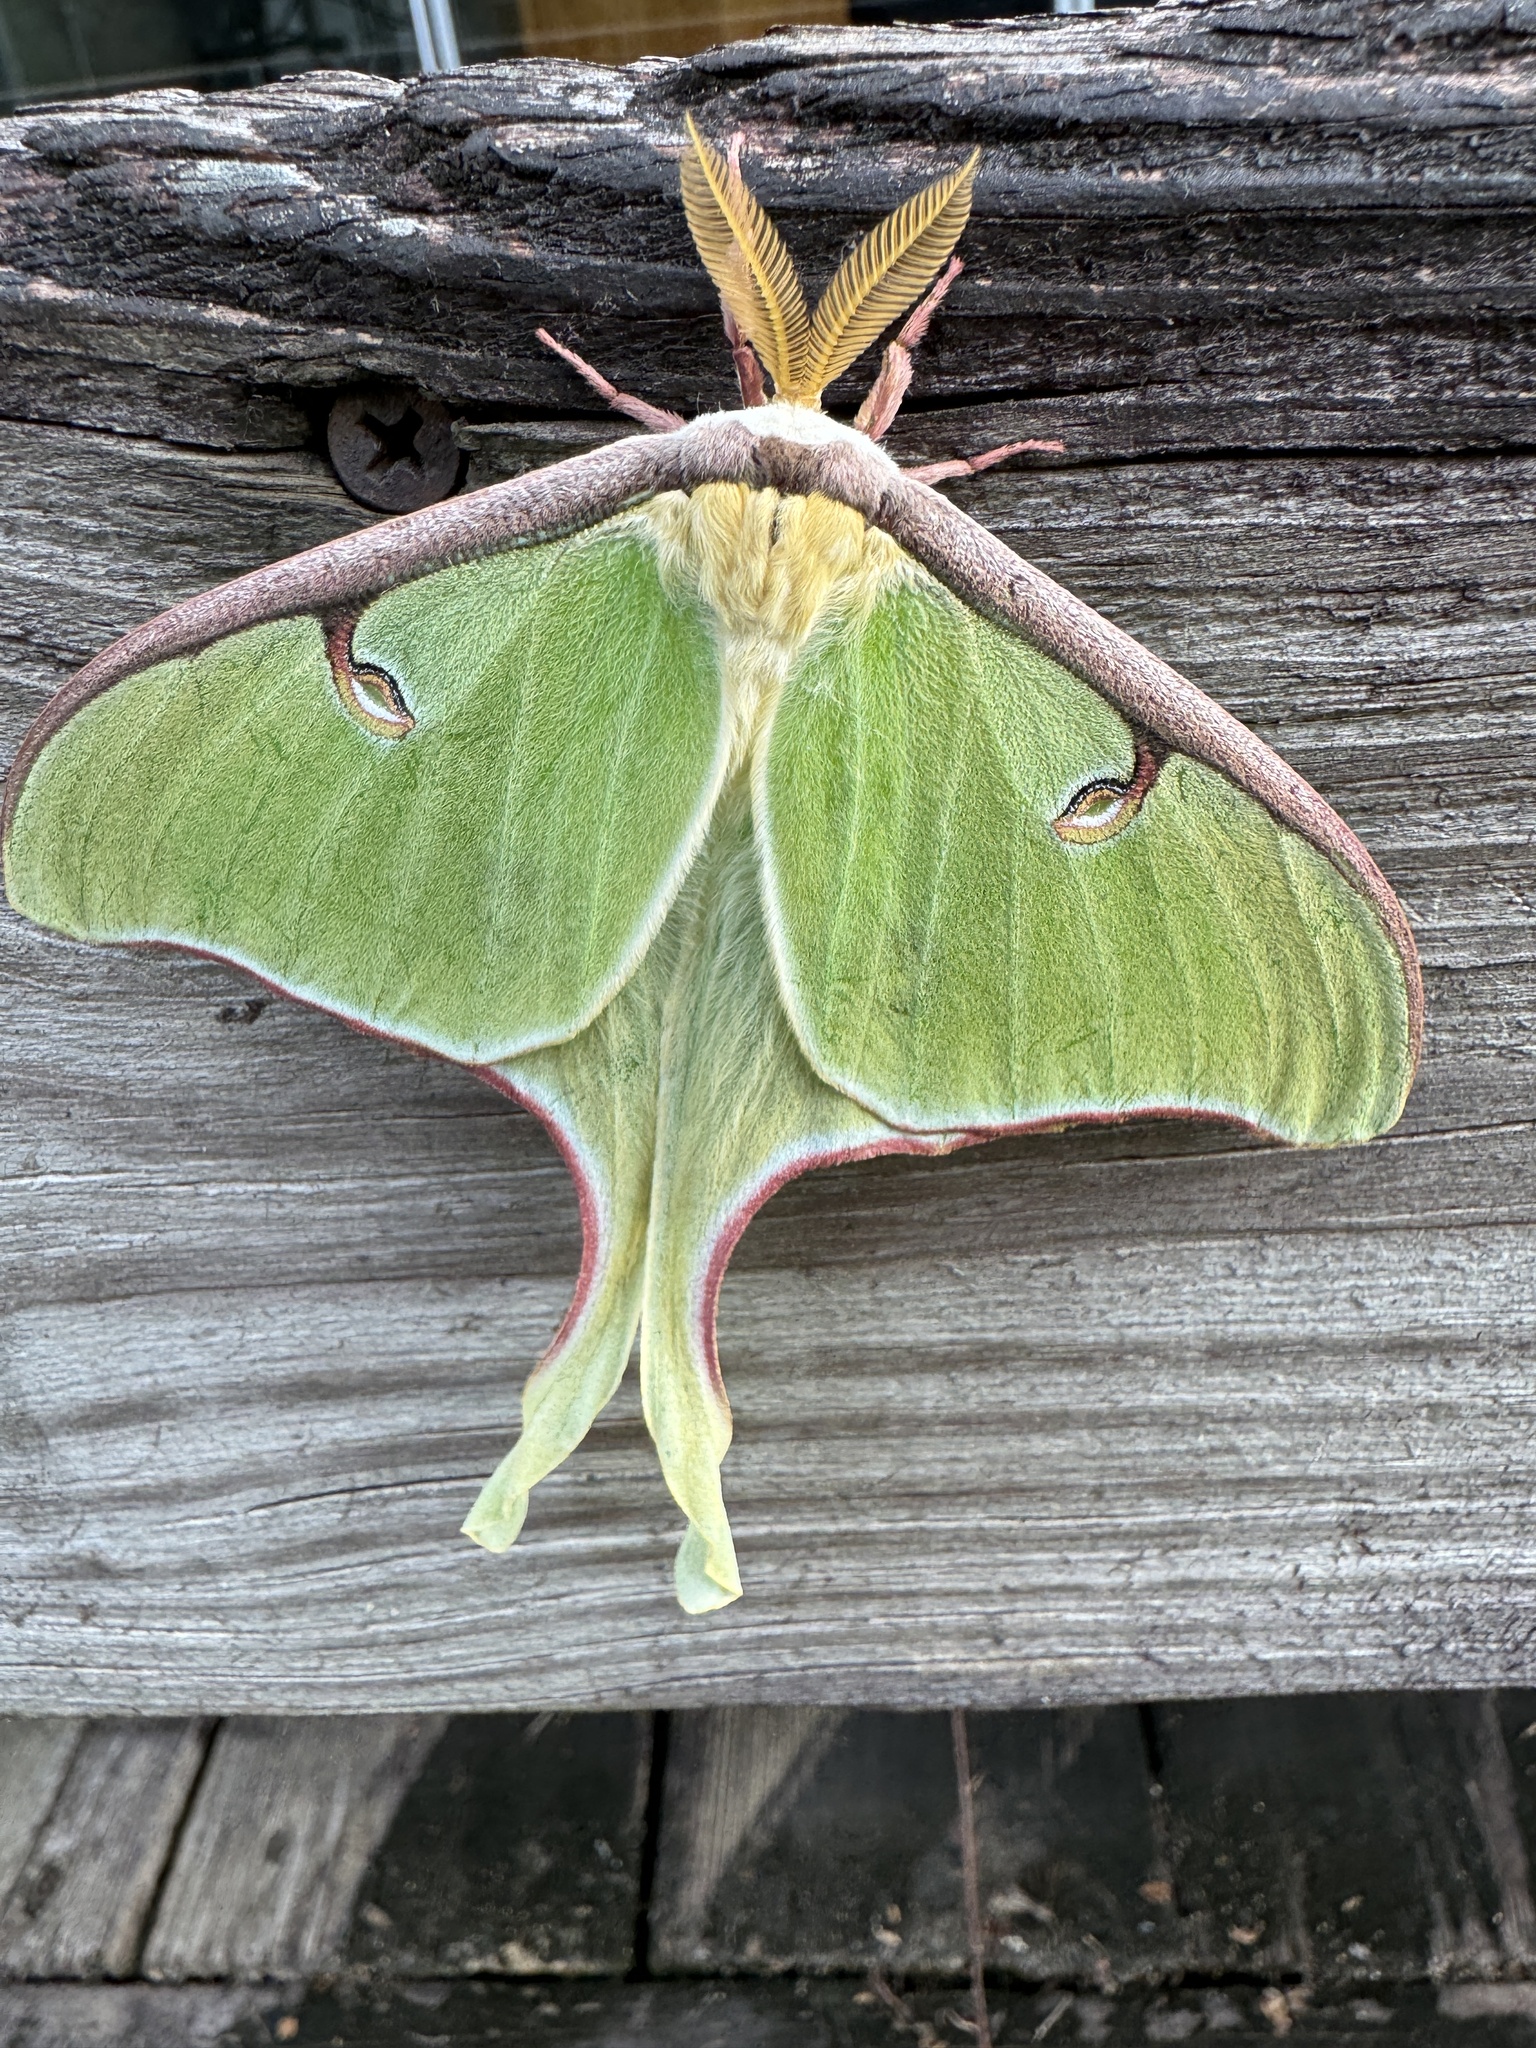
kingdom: Animalia
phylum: Arthropoda
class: Insecta
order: Lepidoptera
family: Saturniidae
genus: Actias
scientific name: Actias luna
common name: Luna moth
